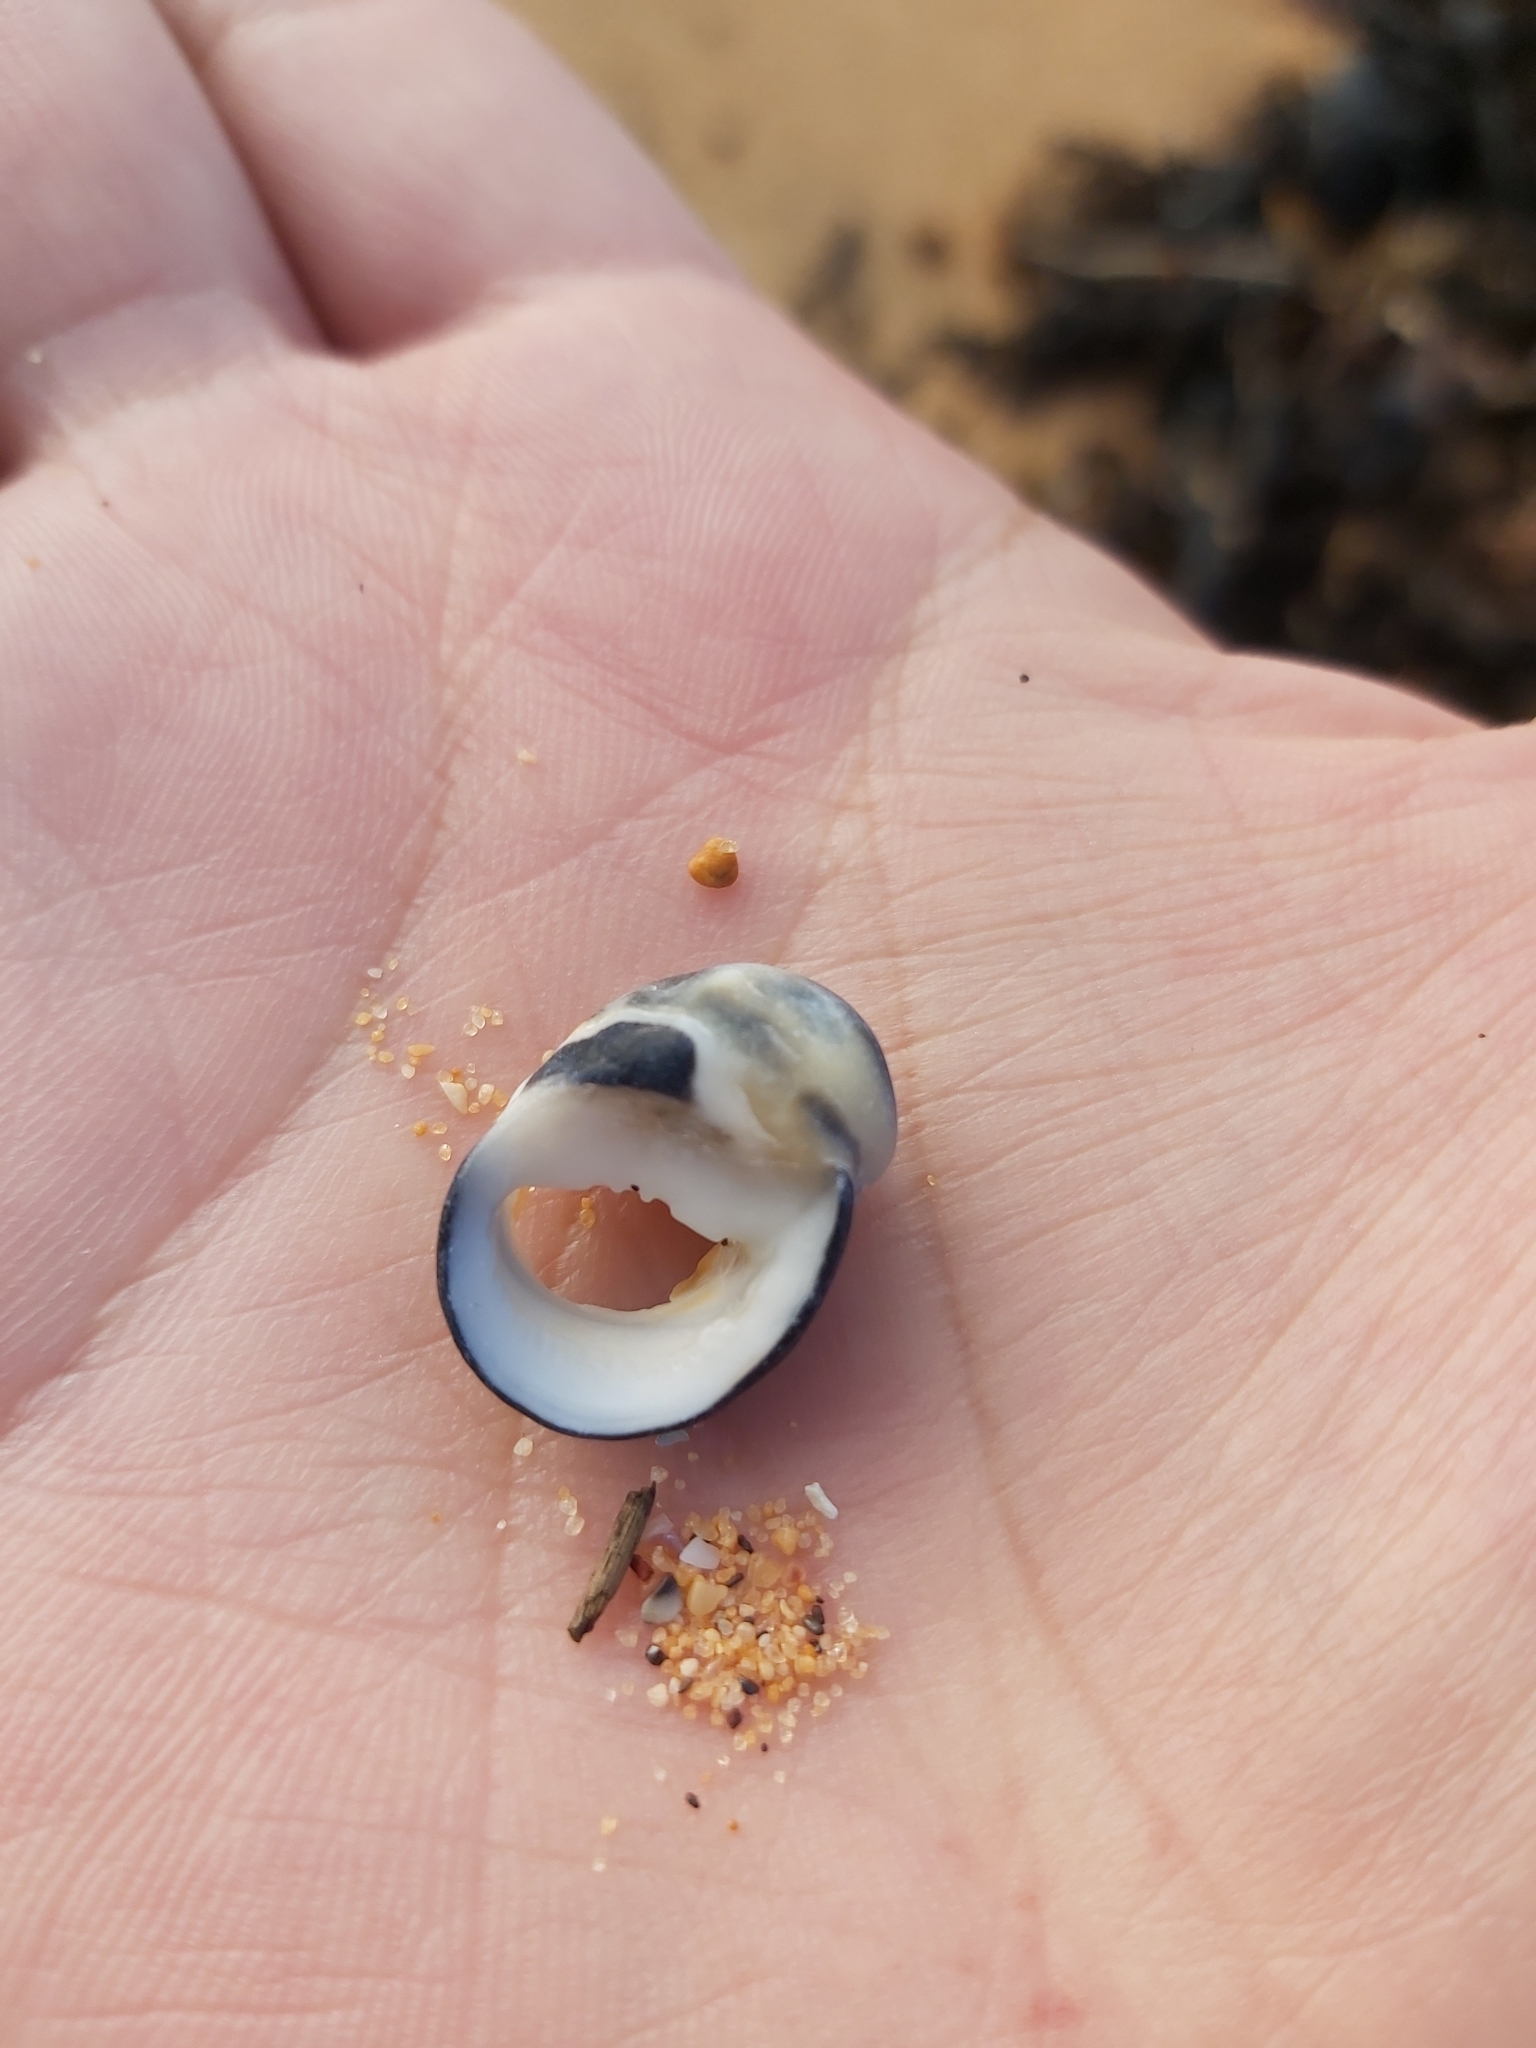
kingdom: Animalia
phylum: Mollusca
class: Gastropoda
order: Cycloneritida
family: Neritidae
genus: Nerita
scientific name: Nerita melanotragus
